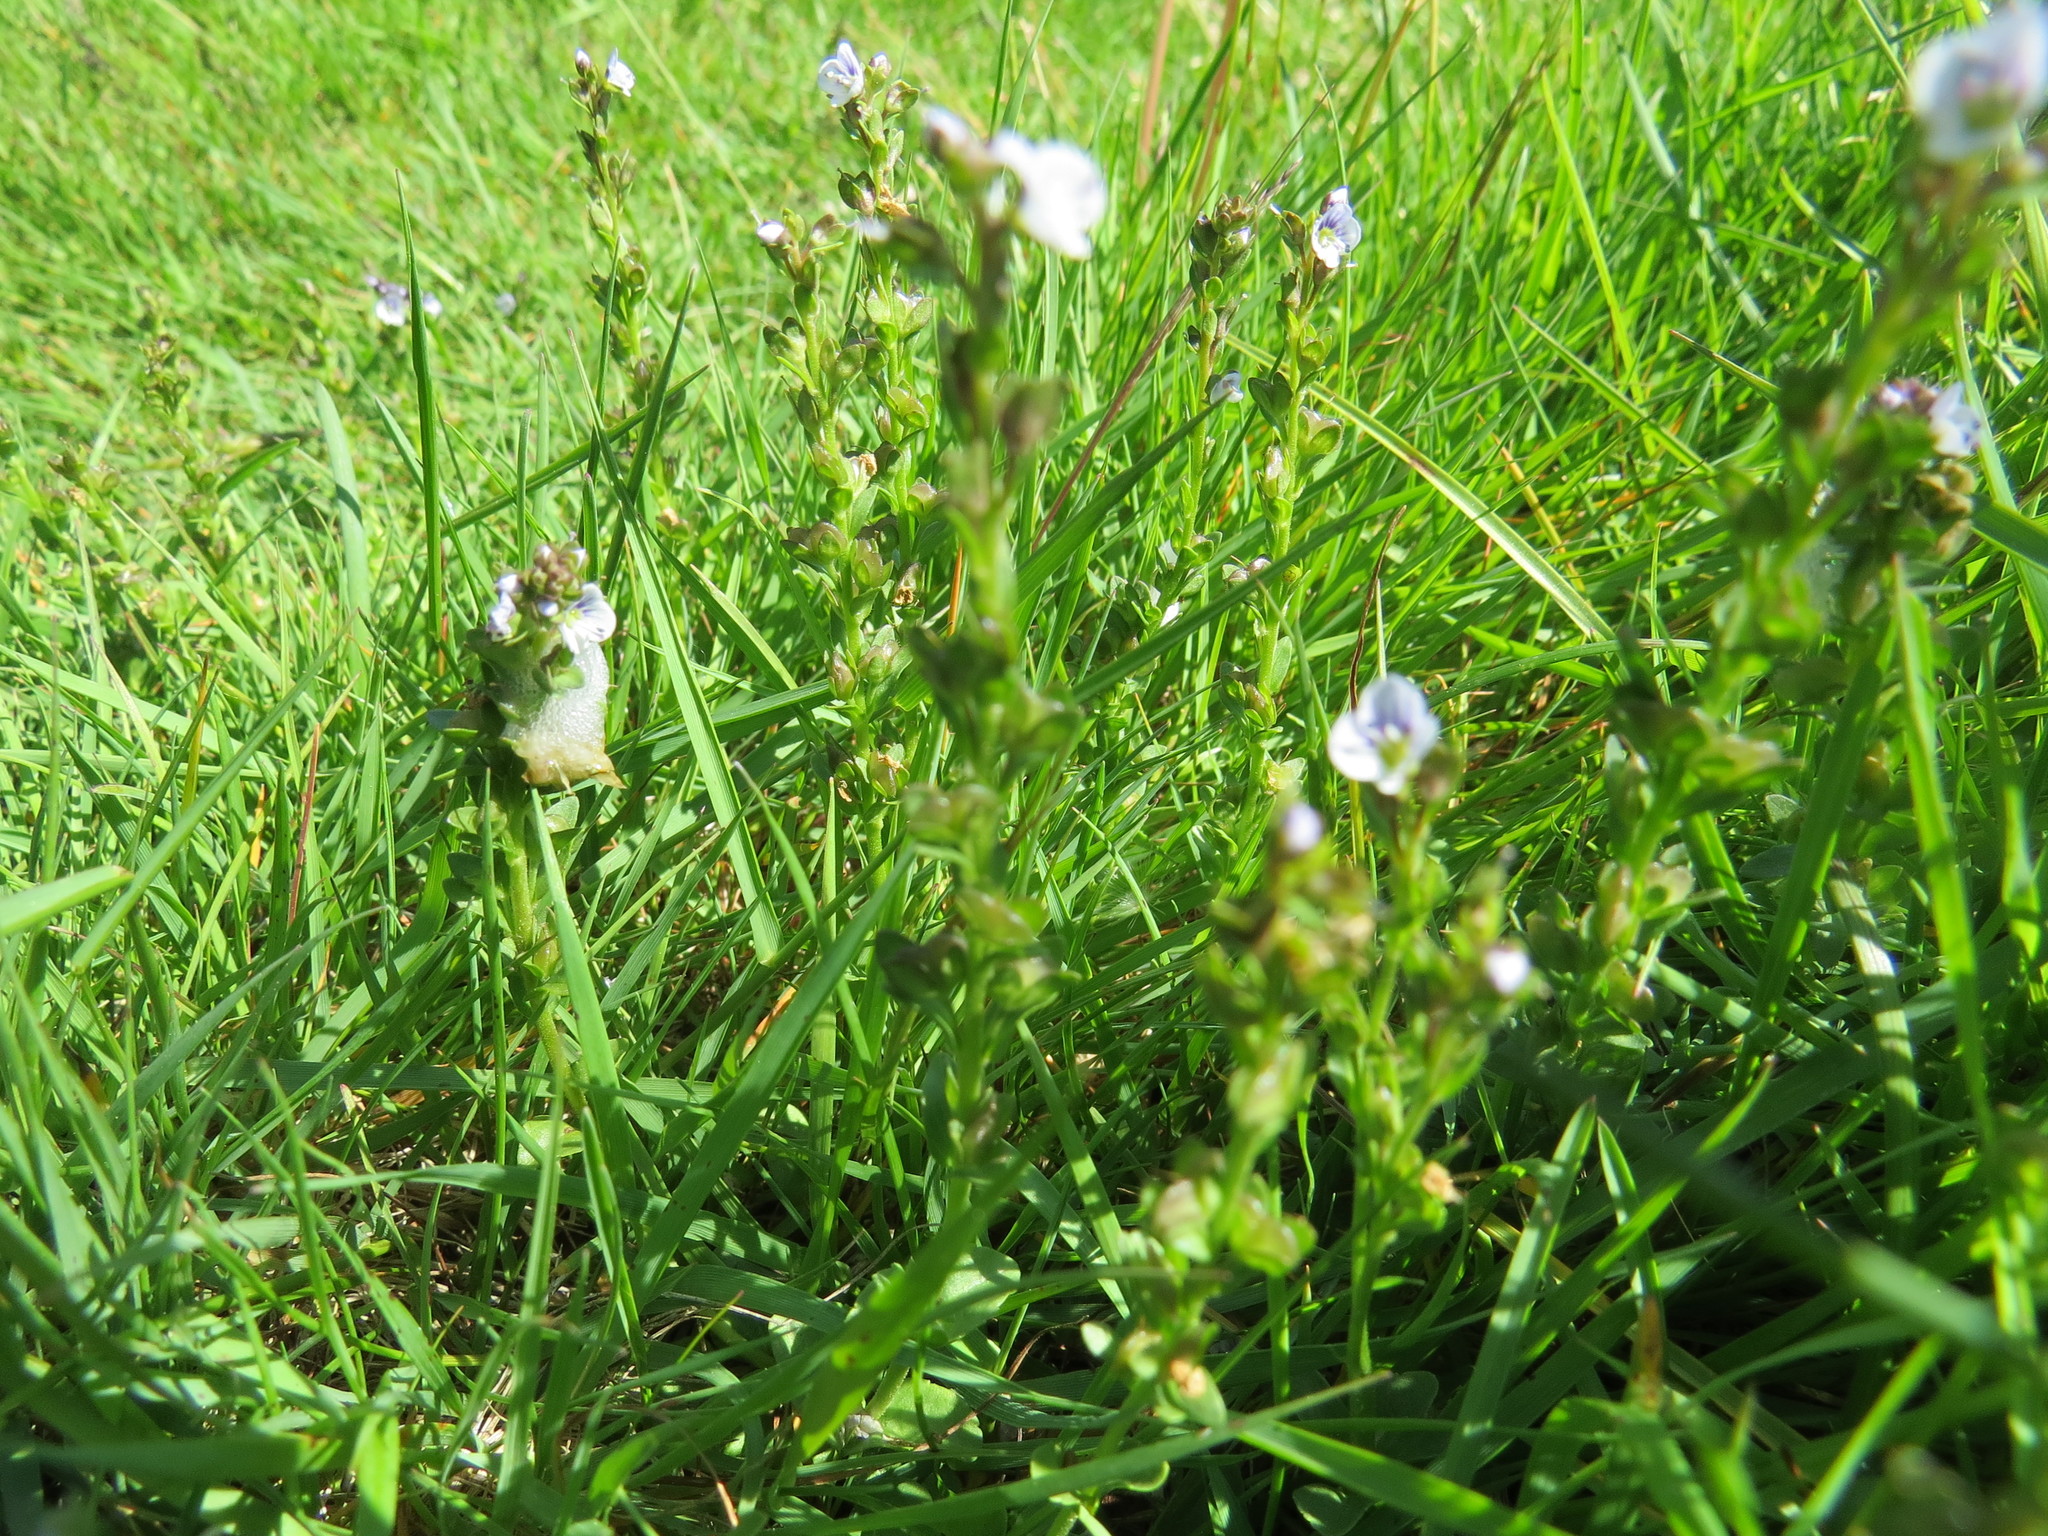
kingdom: Plantae
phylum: Tracheophyta
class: Magnoliopsida
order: Lamiales
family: Plantaginaceae
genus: Veronica
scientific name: Veronica serpyllifolia
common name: Thyme-leaved speedwell
